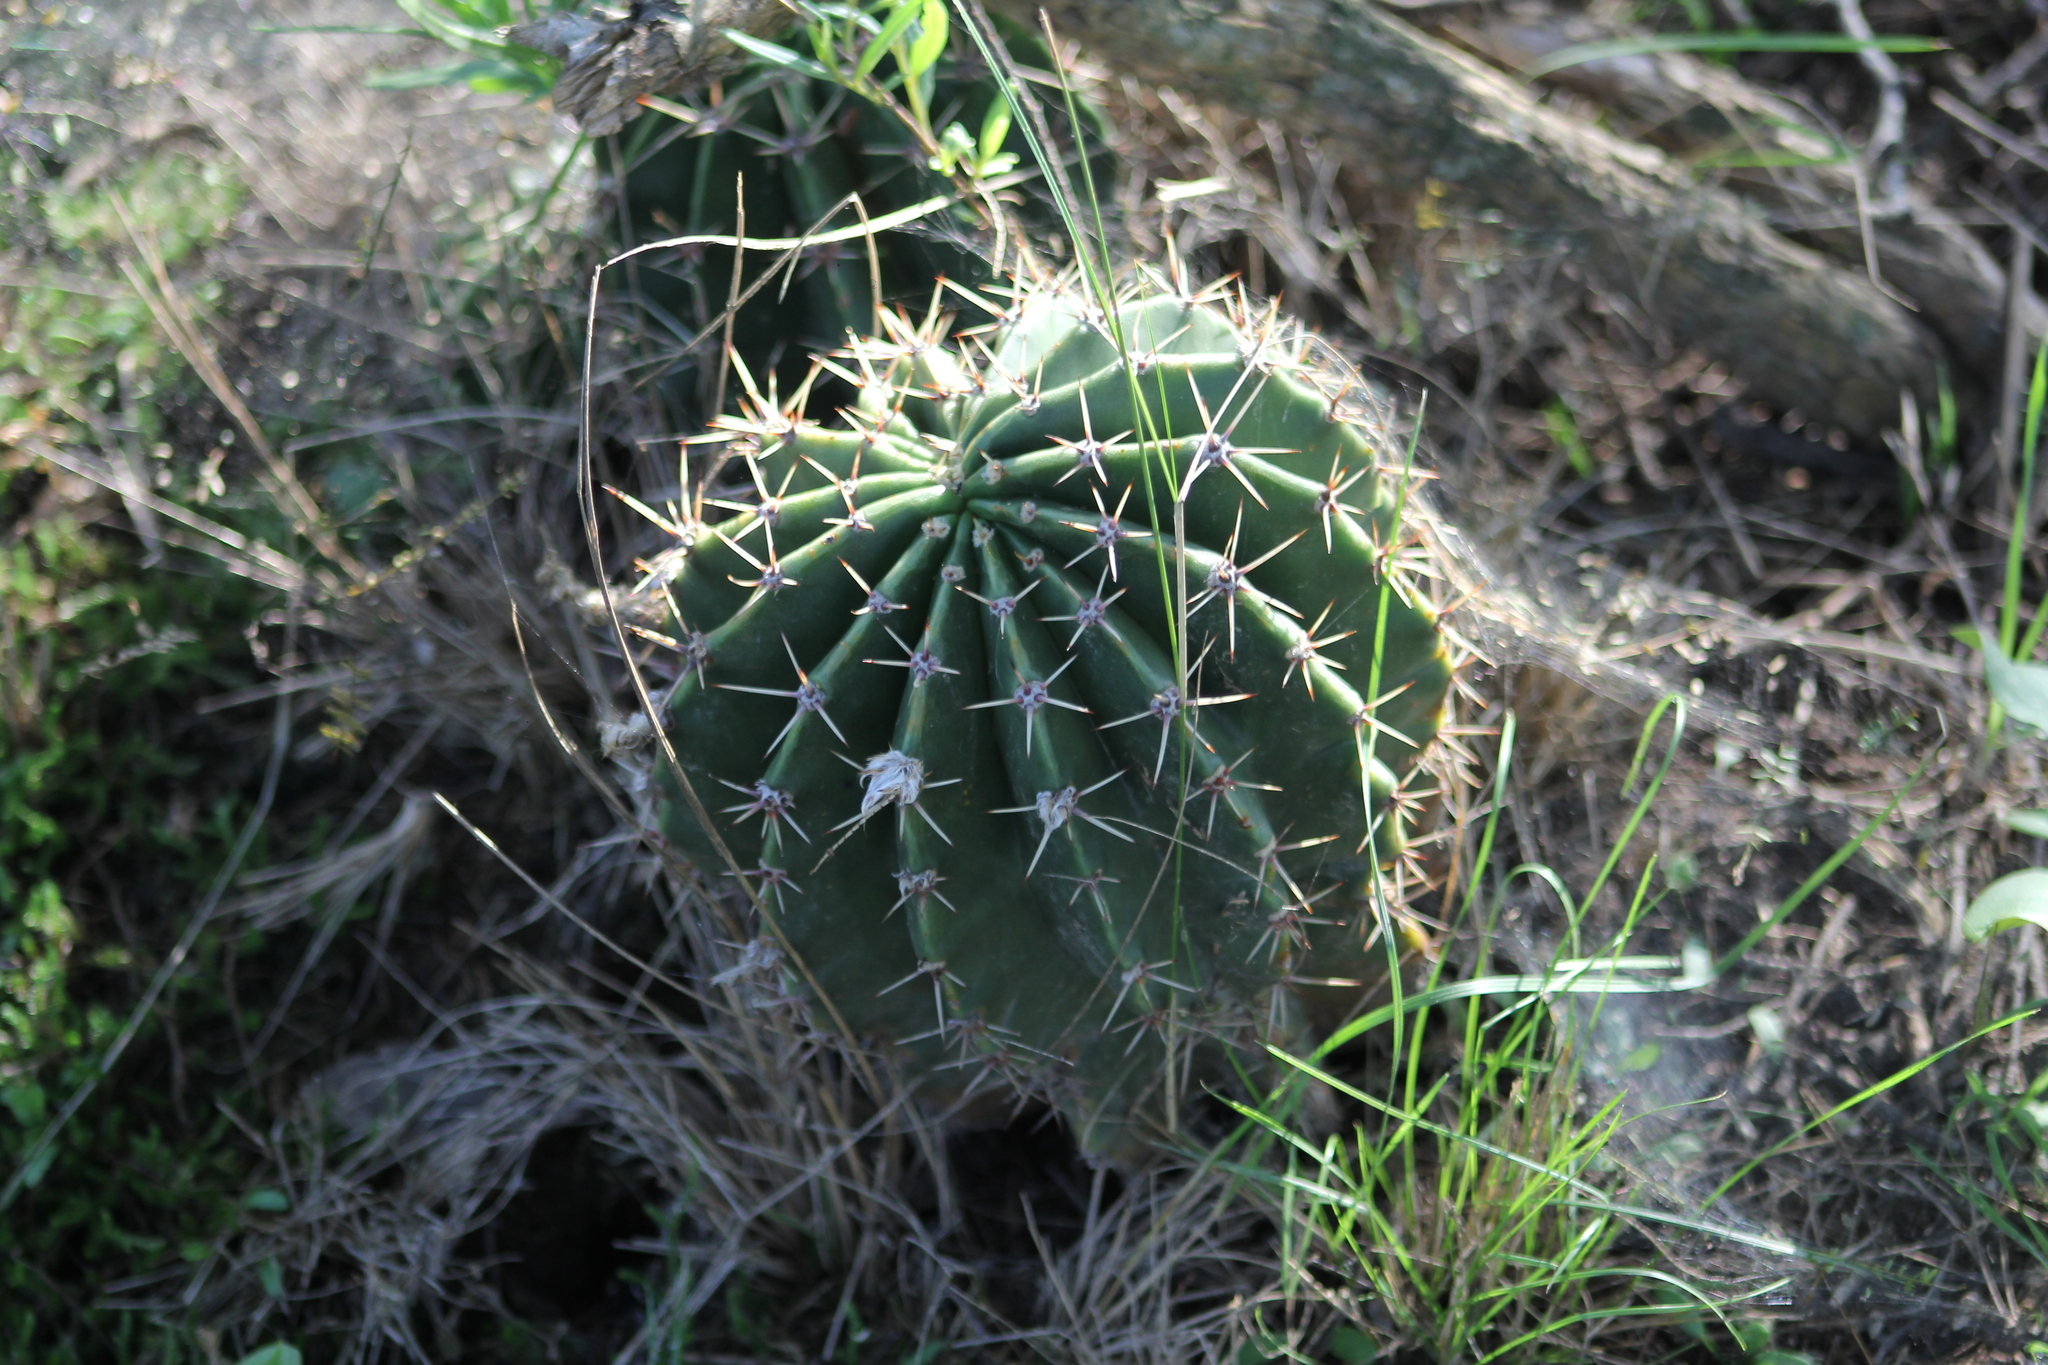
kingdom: Plantae
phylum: Tracheophyta
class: Magnoliopsida
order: Caryophyllales
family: Cactaceae
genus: Acanthocalycium
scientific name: Acanthocalycium rhodotrichum
